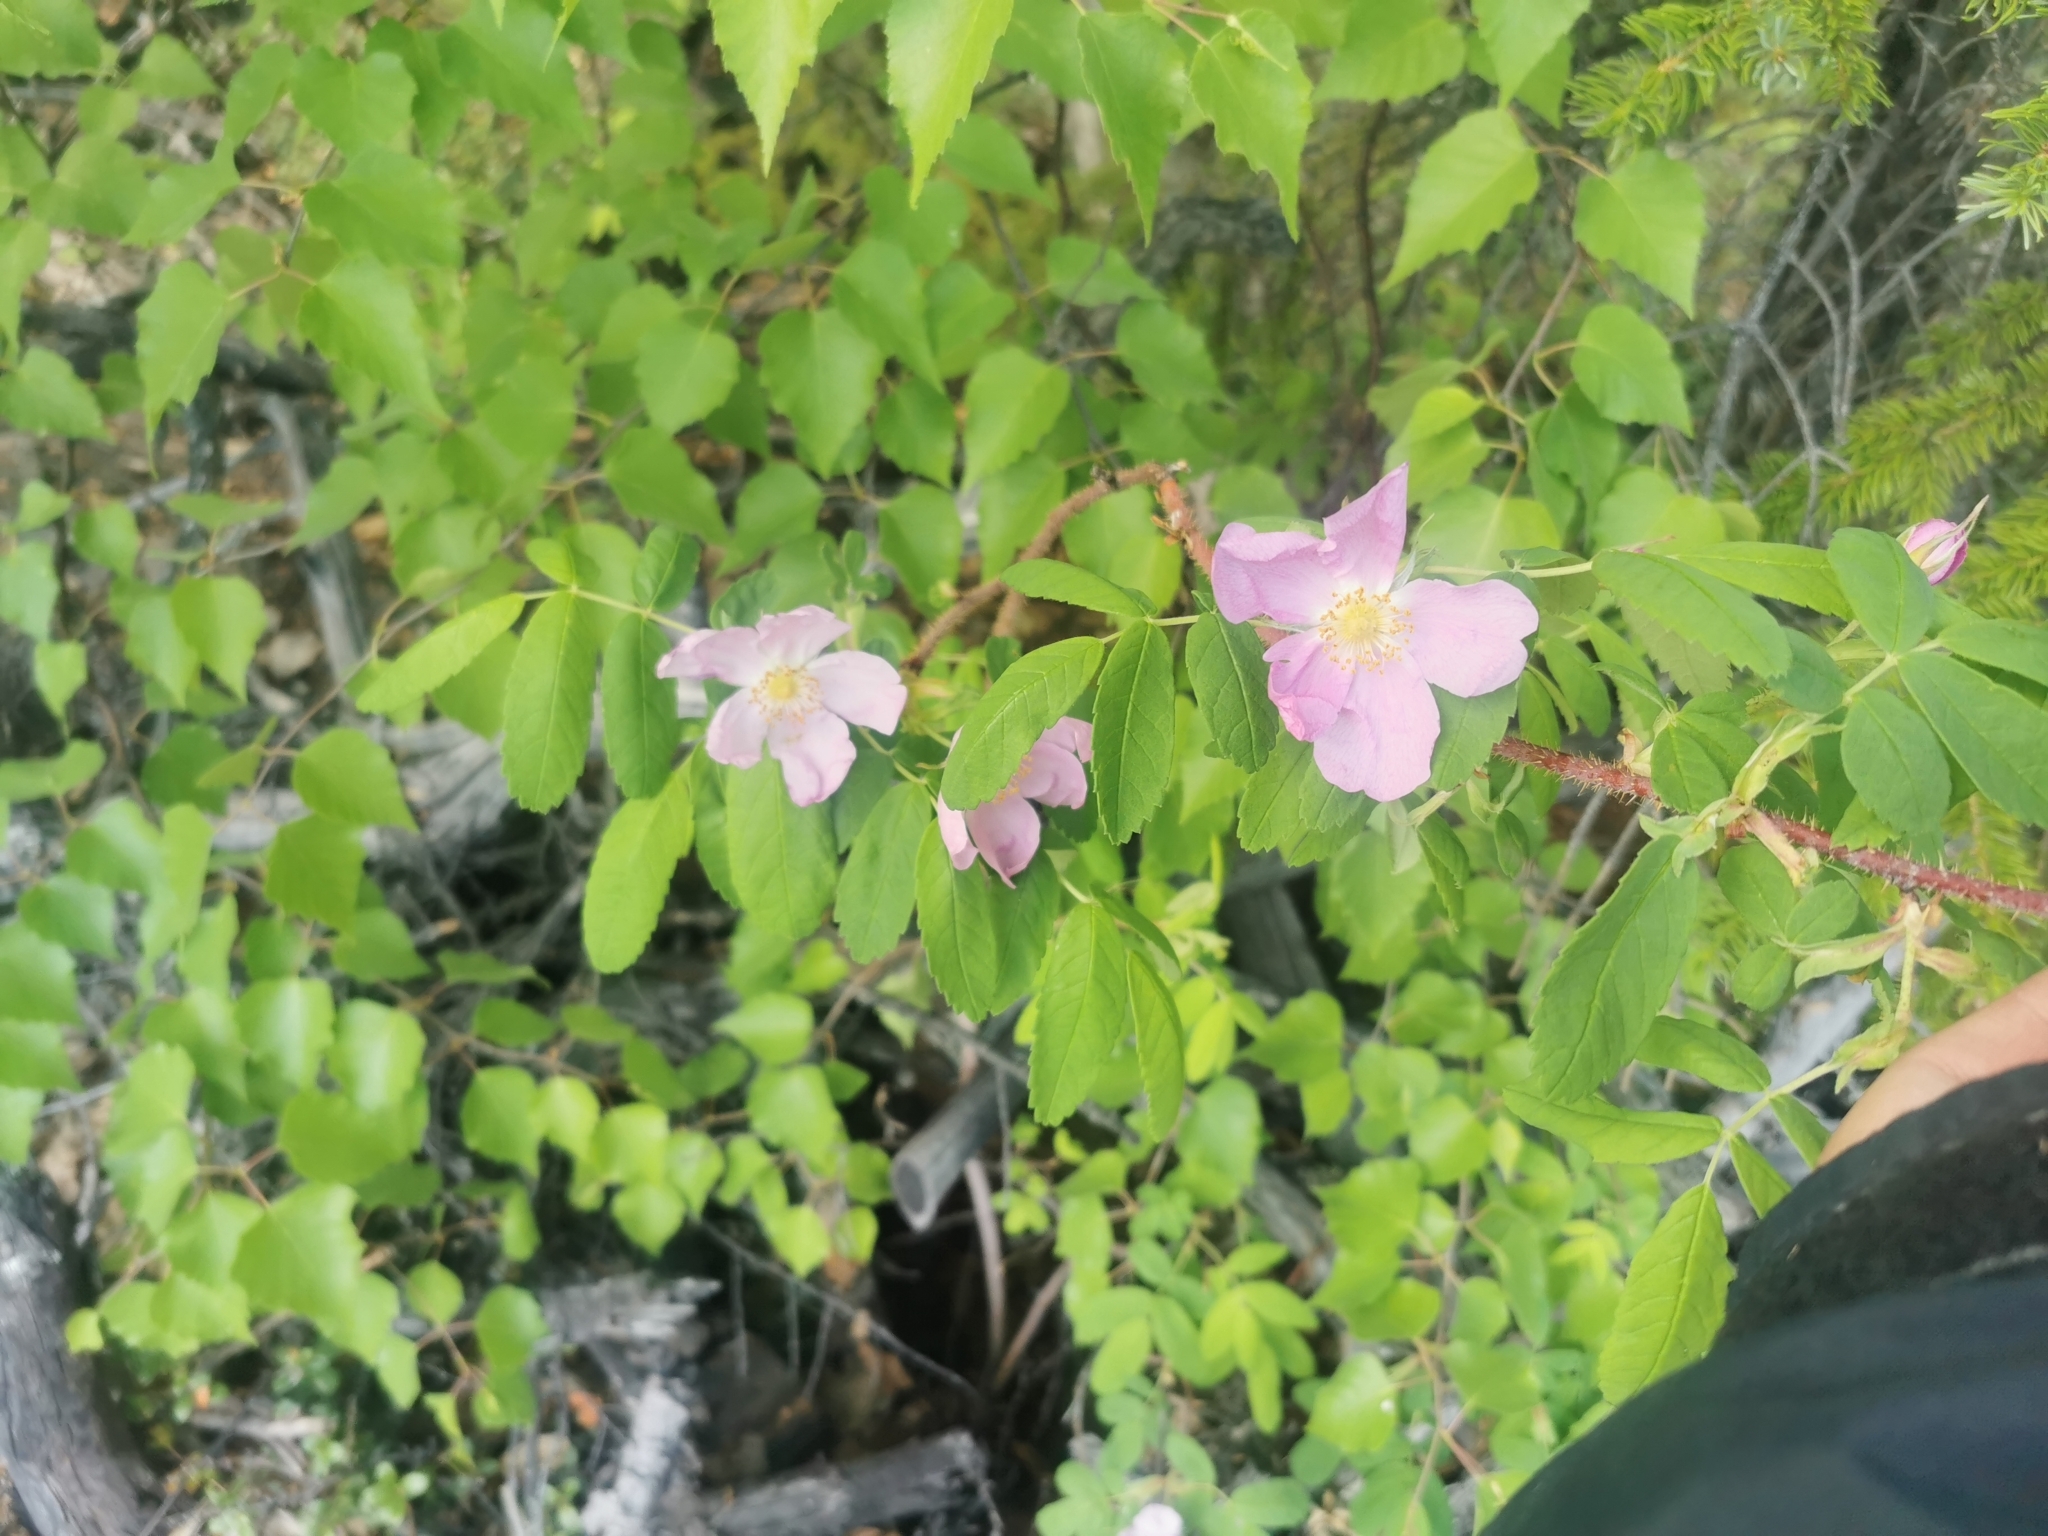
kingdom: Plantae
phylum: Tracheophyta
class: Magnoliopsida
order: Rosales
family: Rosaceae
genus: Rosa
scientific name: Rosa acicularis
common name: Prickly rose
